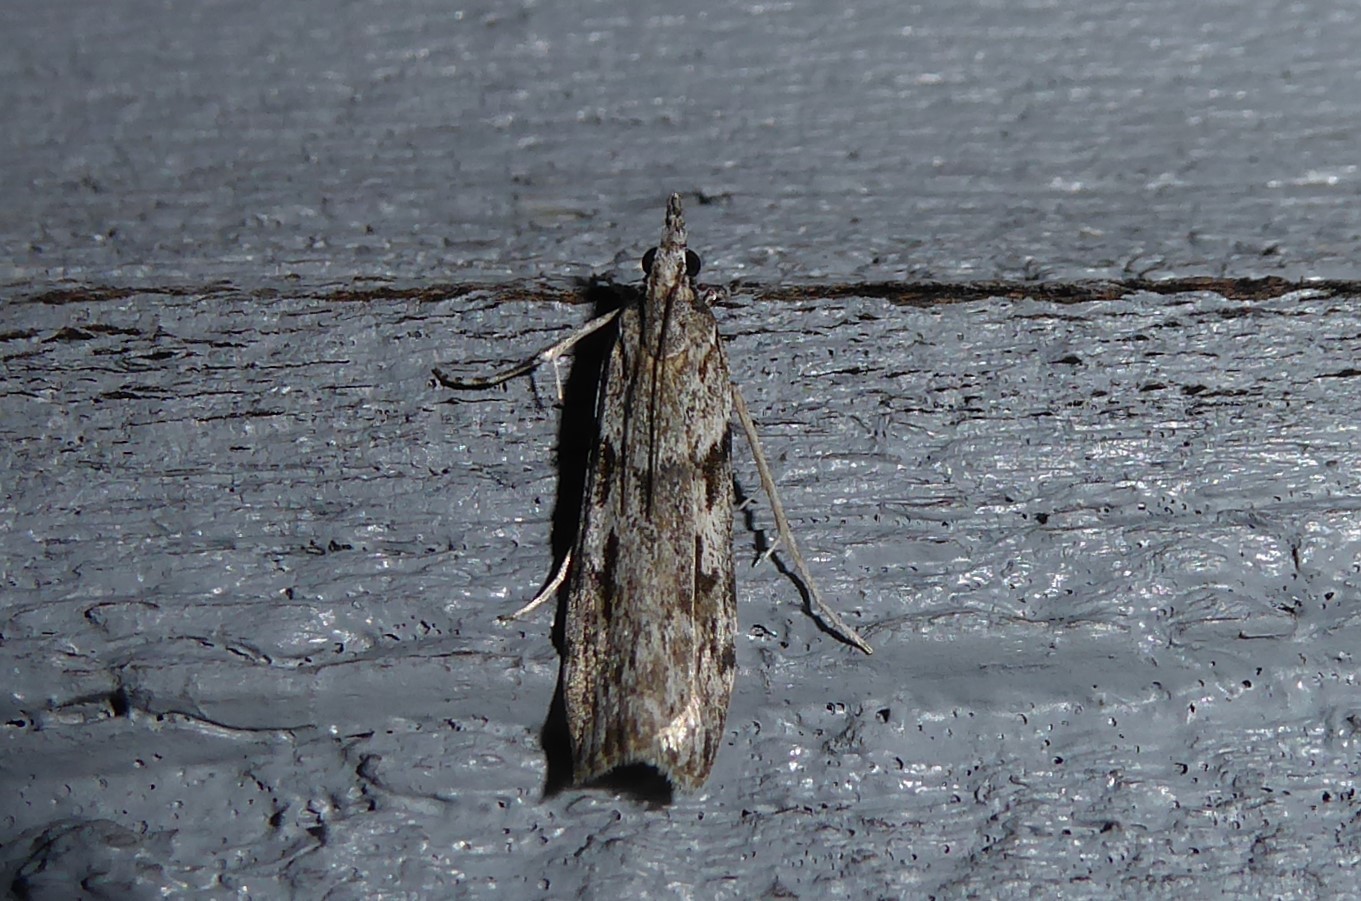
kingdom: Animalia
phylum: Arthropoda
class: Insecta
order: Lepidoptera
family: Crambidae
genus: Scoparia
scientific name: Scoparia halopis
